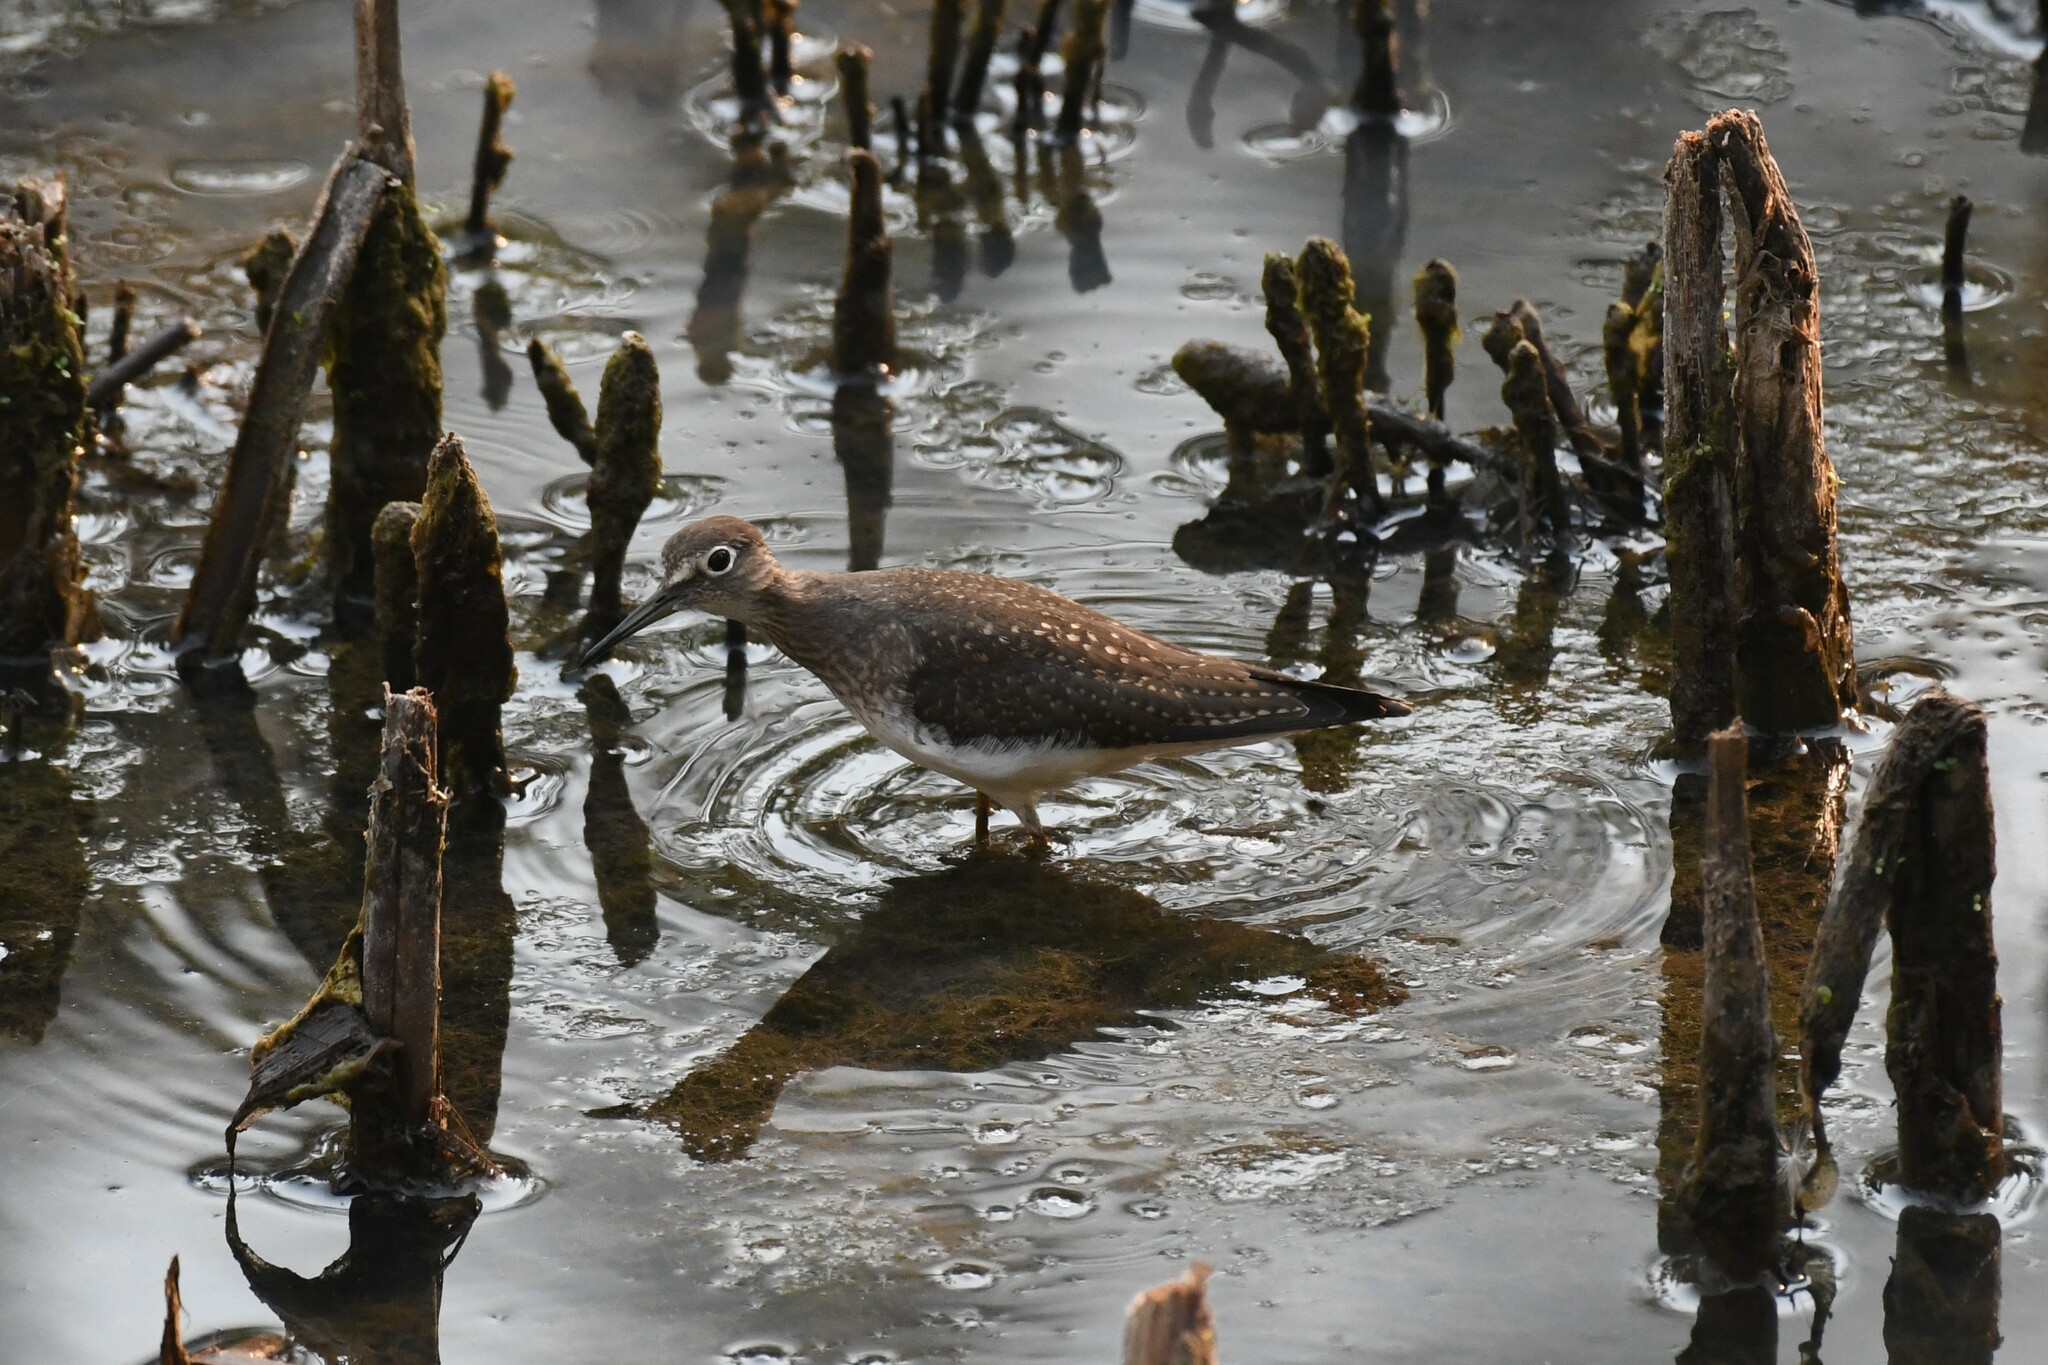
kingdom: Animalia
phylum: Chordata
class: Aves
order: Charadriiformes
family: Scolopacidae
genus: Tringa
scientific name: Tringa solitaria
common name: Solitary sandpiper
